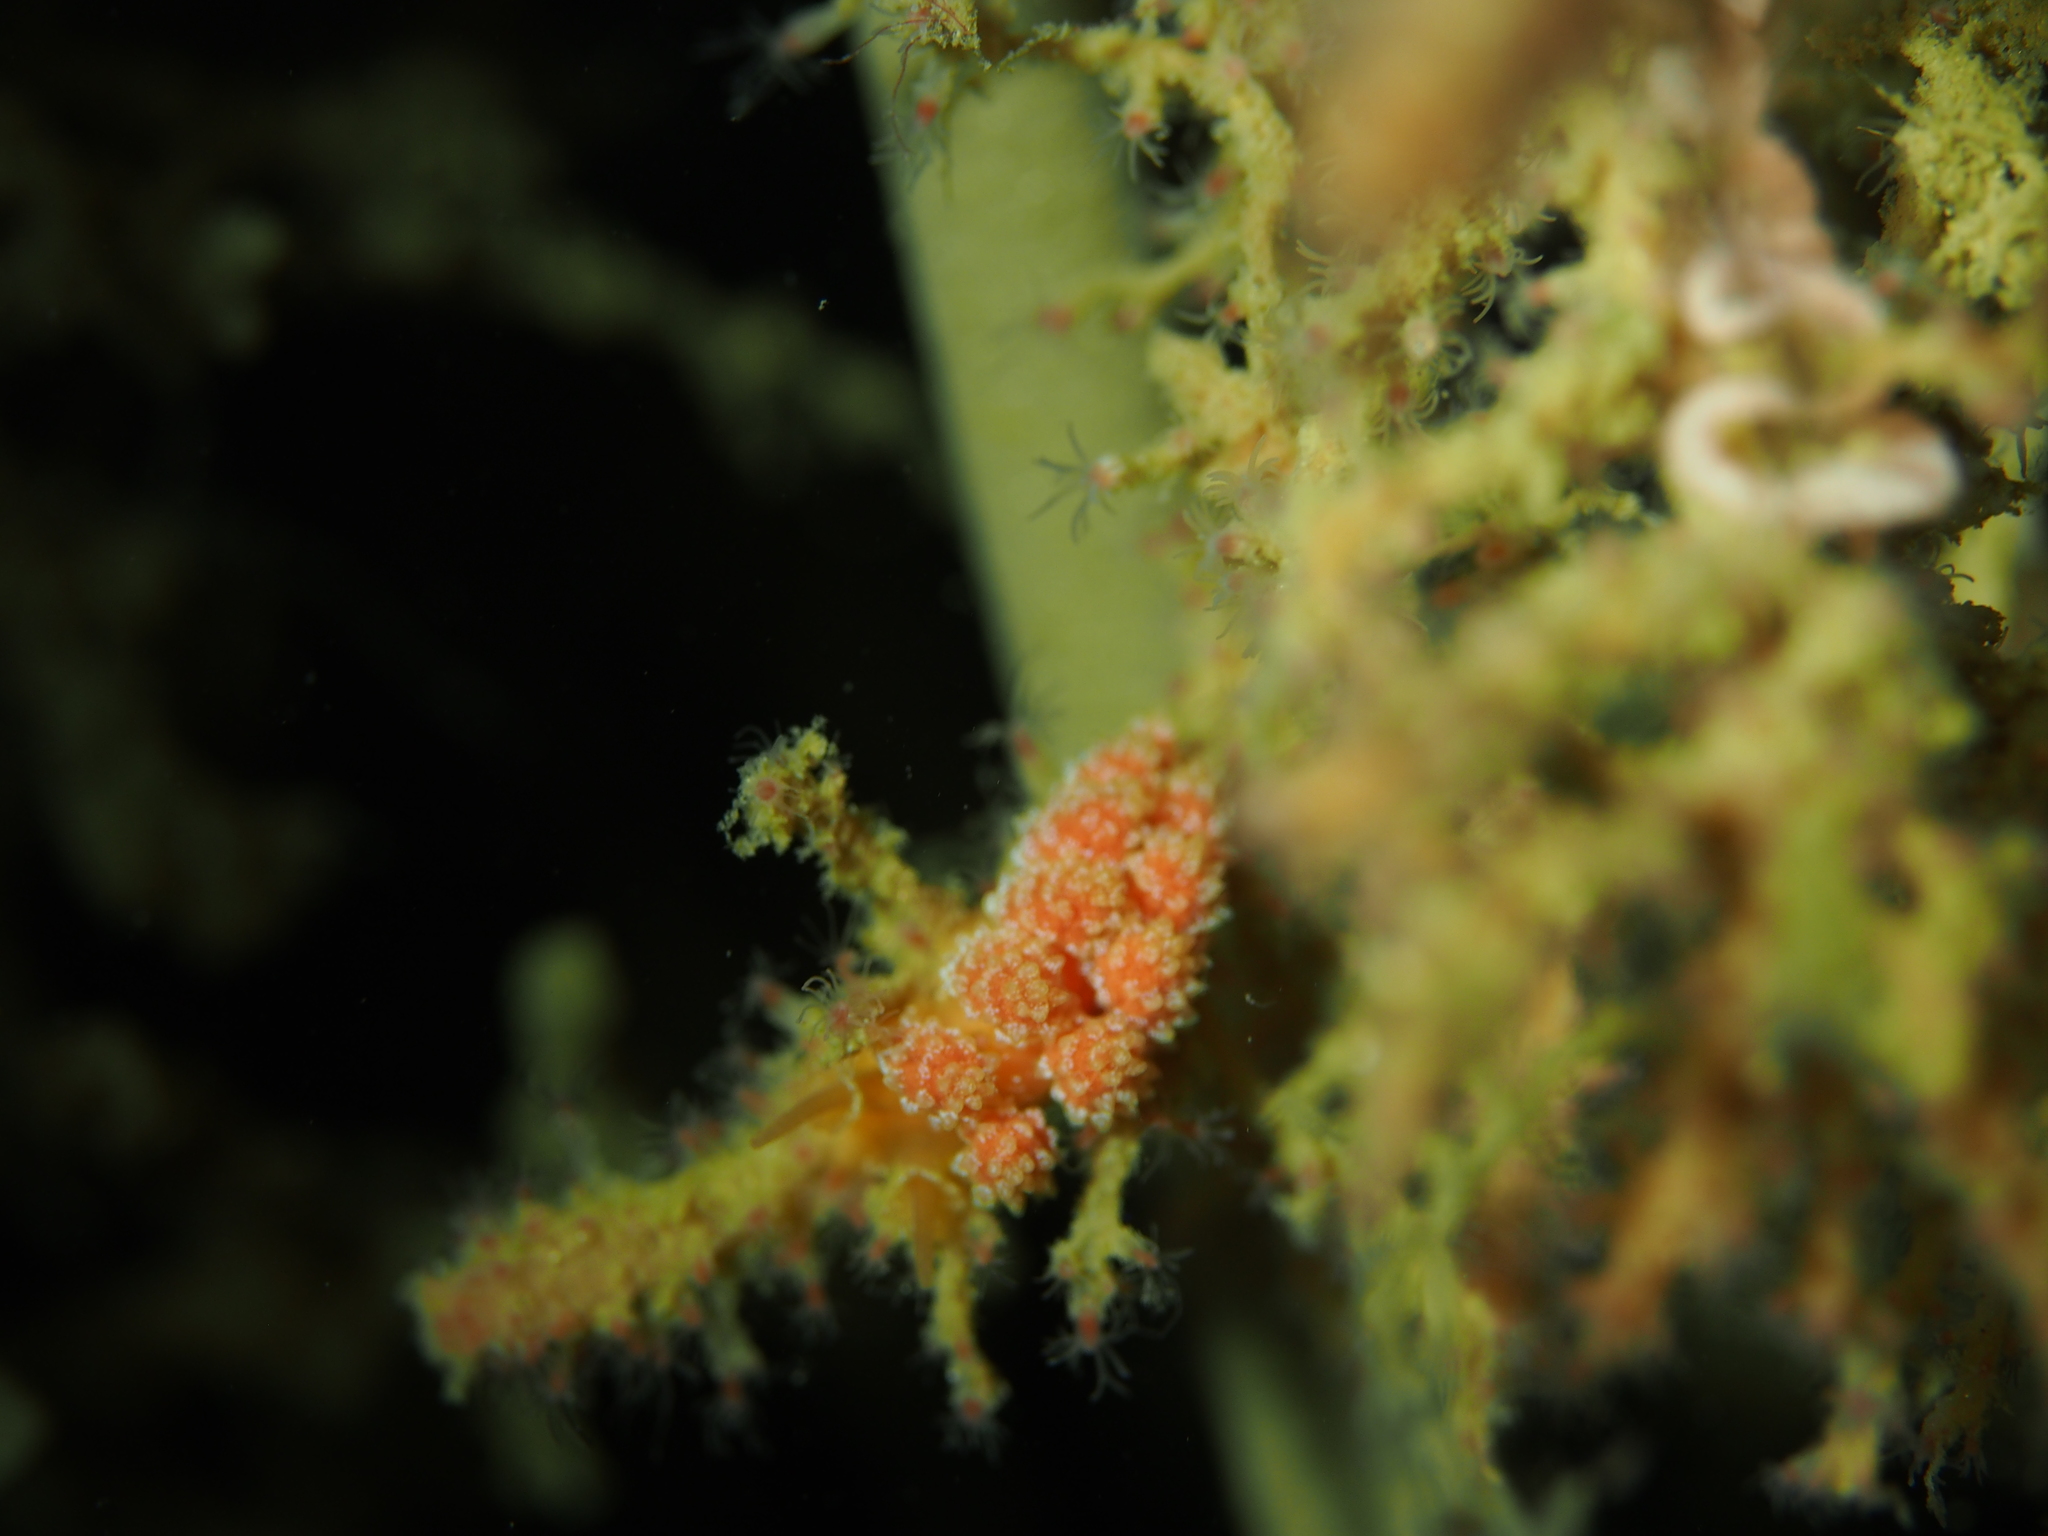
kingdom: Animalia
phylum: Mollusca
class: Gastropoda
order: Nudibranchia
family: Dotidae
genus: Doto
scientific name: Doto fragilis
